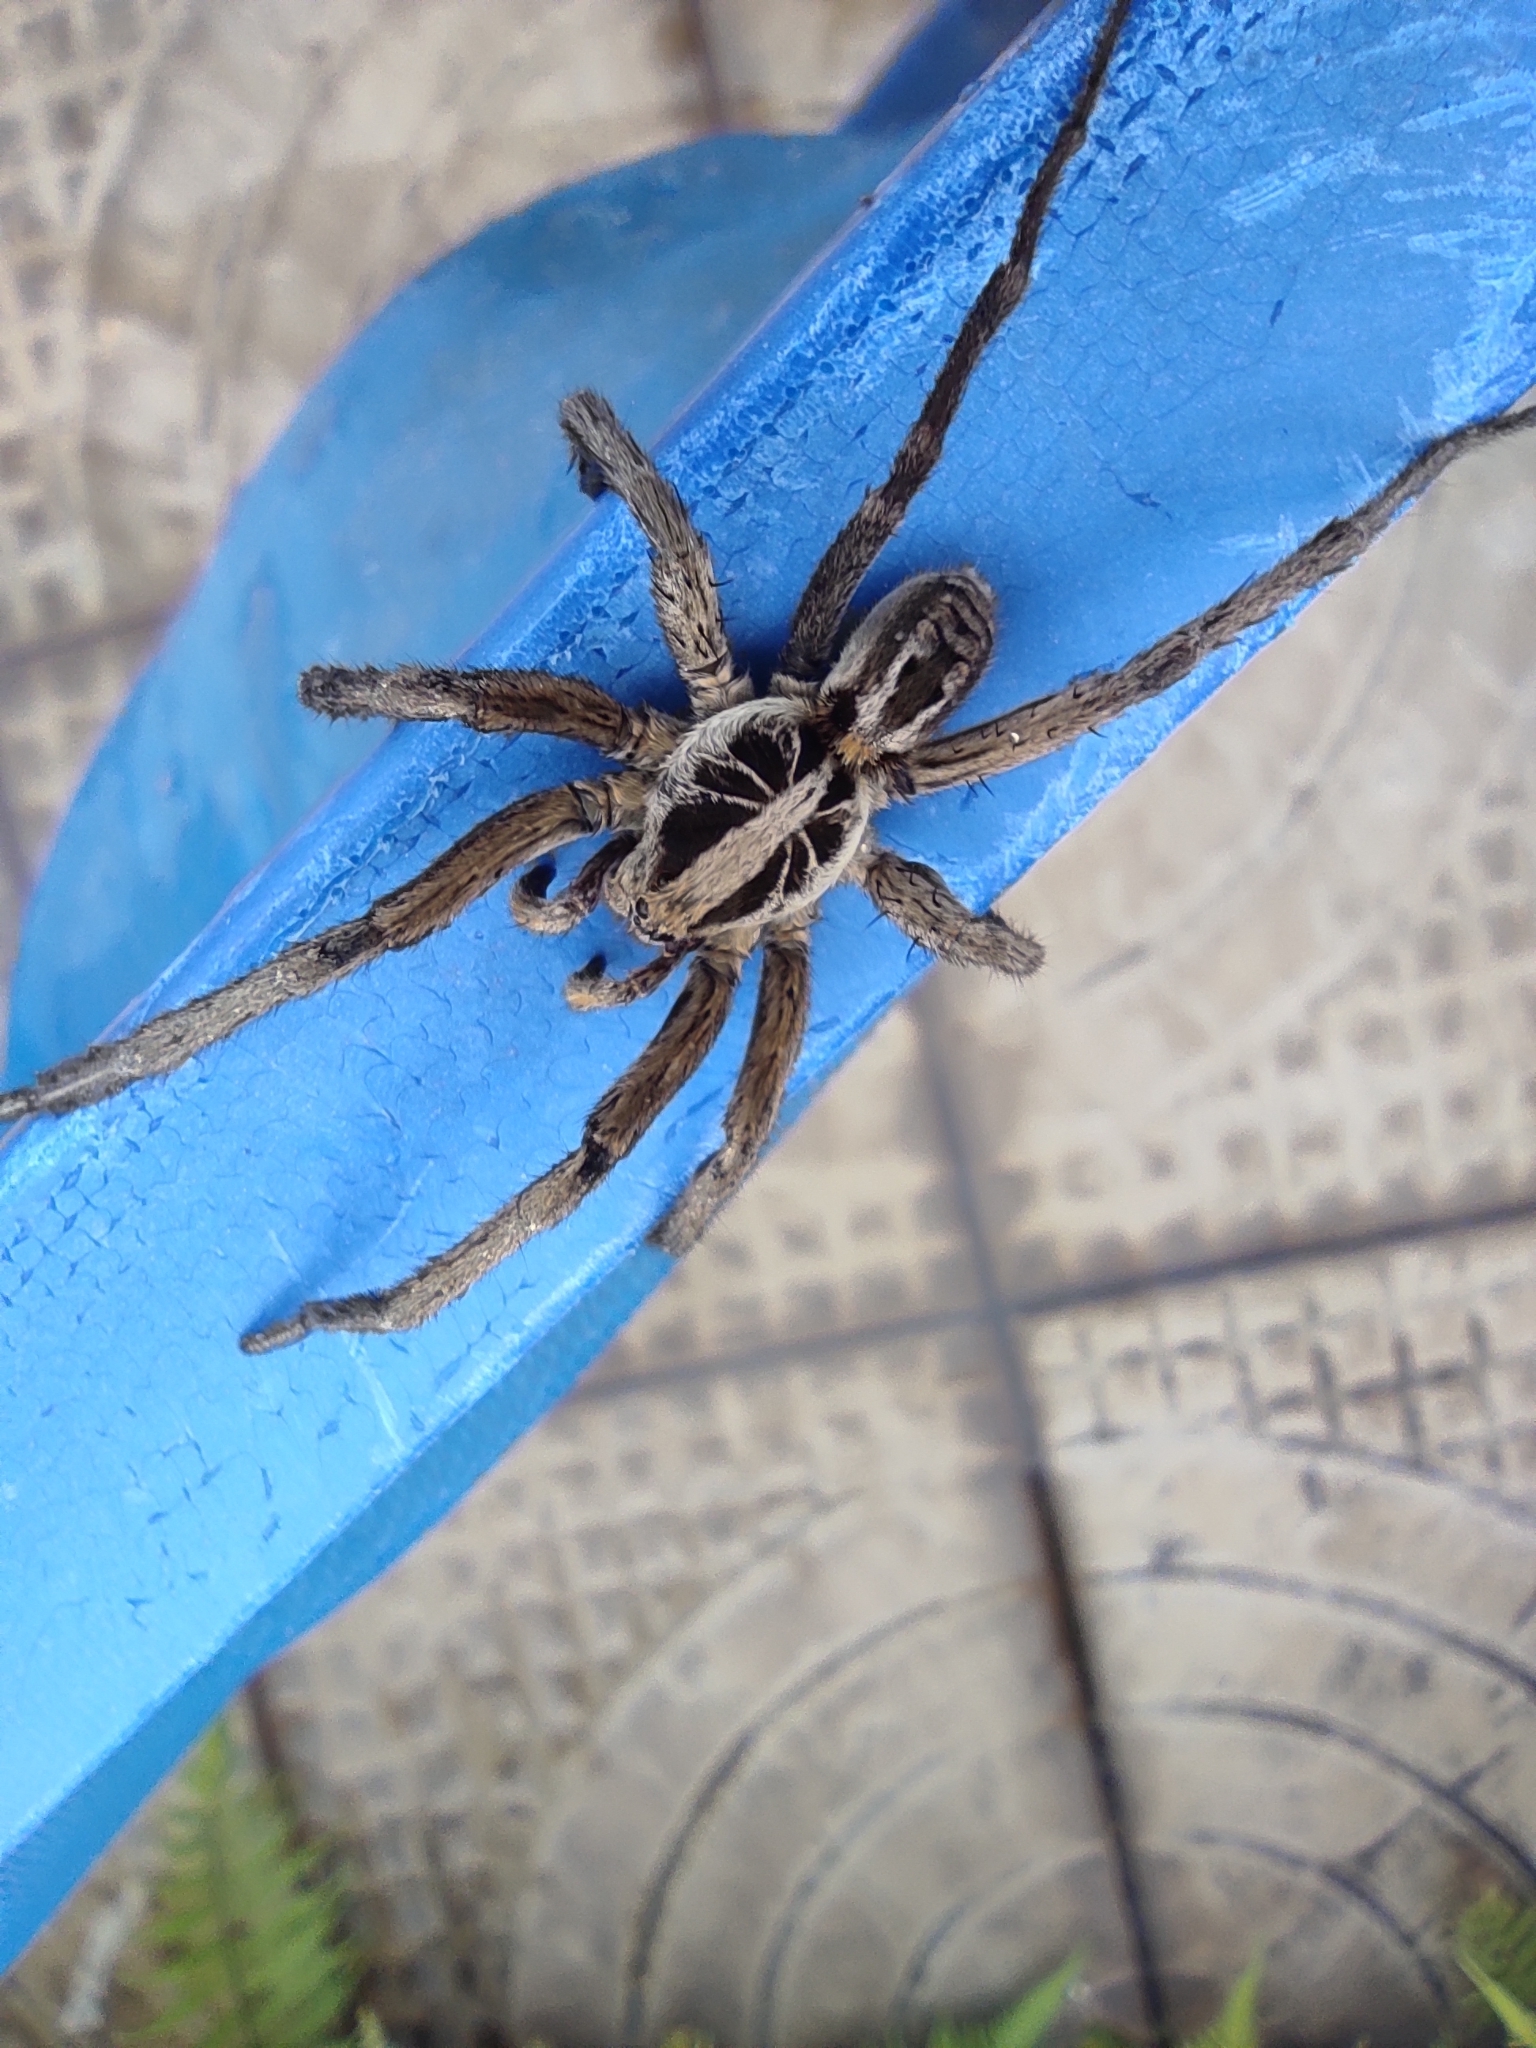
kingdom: Animalia
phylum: Arthropoda
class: Arachnida
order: Araneae
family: Lycosidae
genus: Lycosa
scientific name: Lycosa erythrognatha
